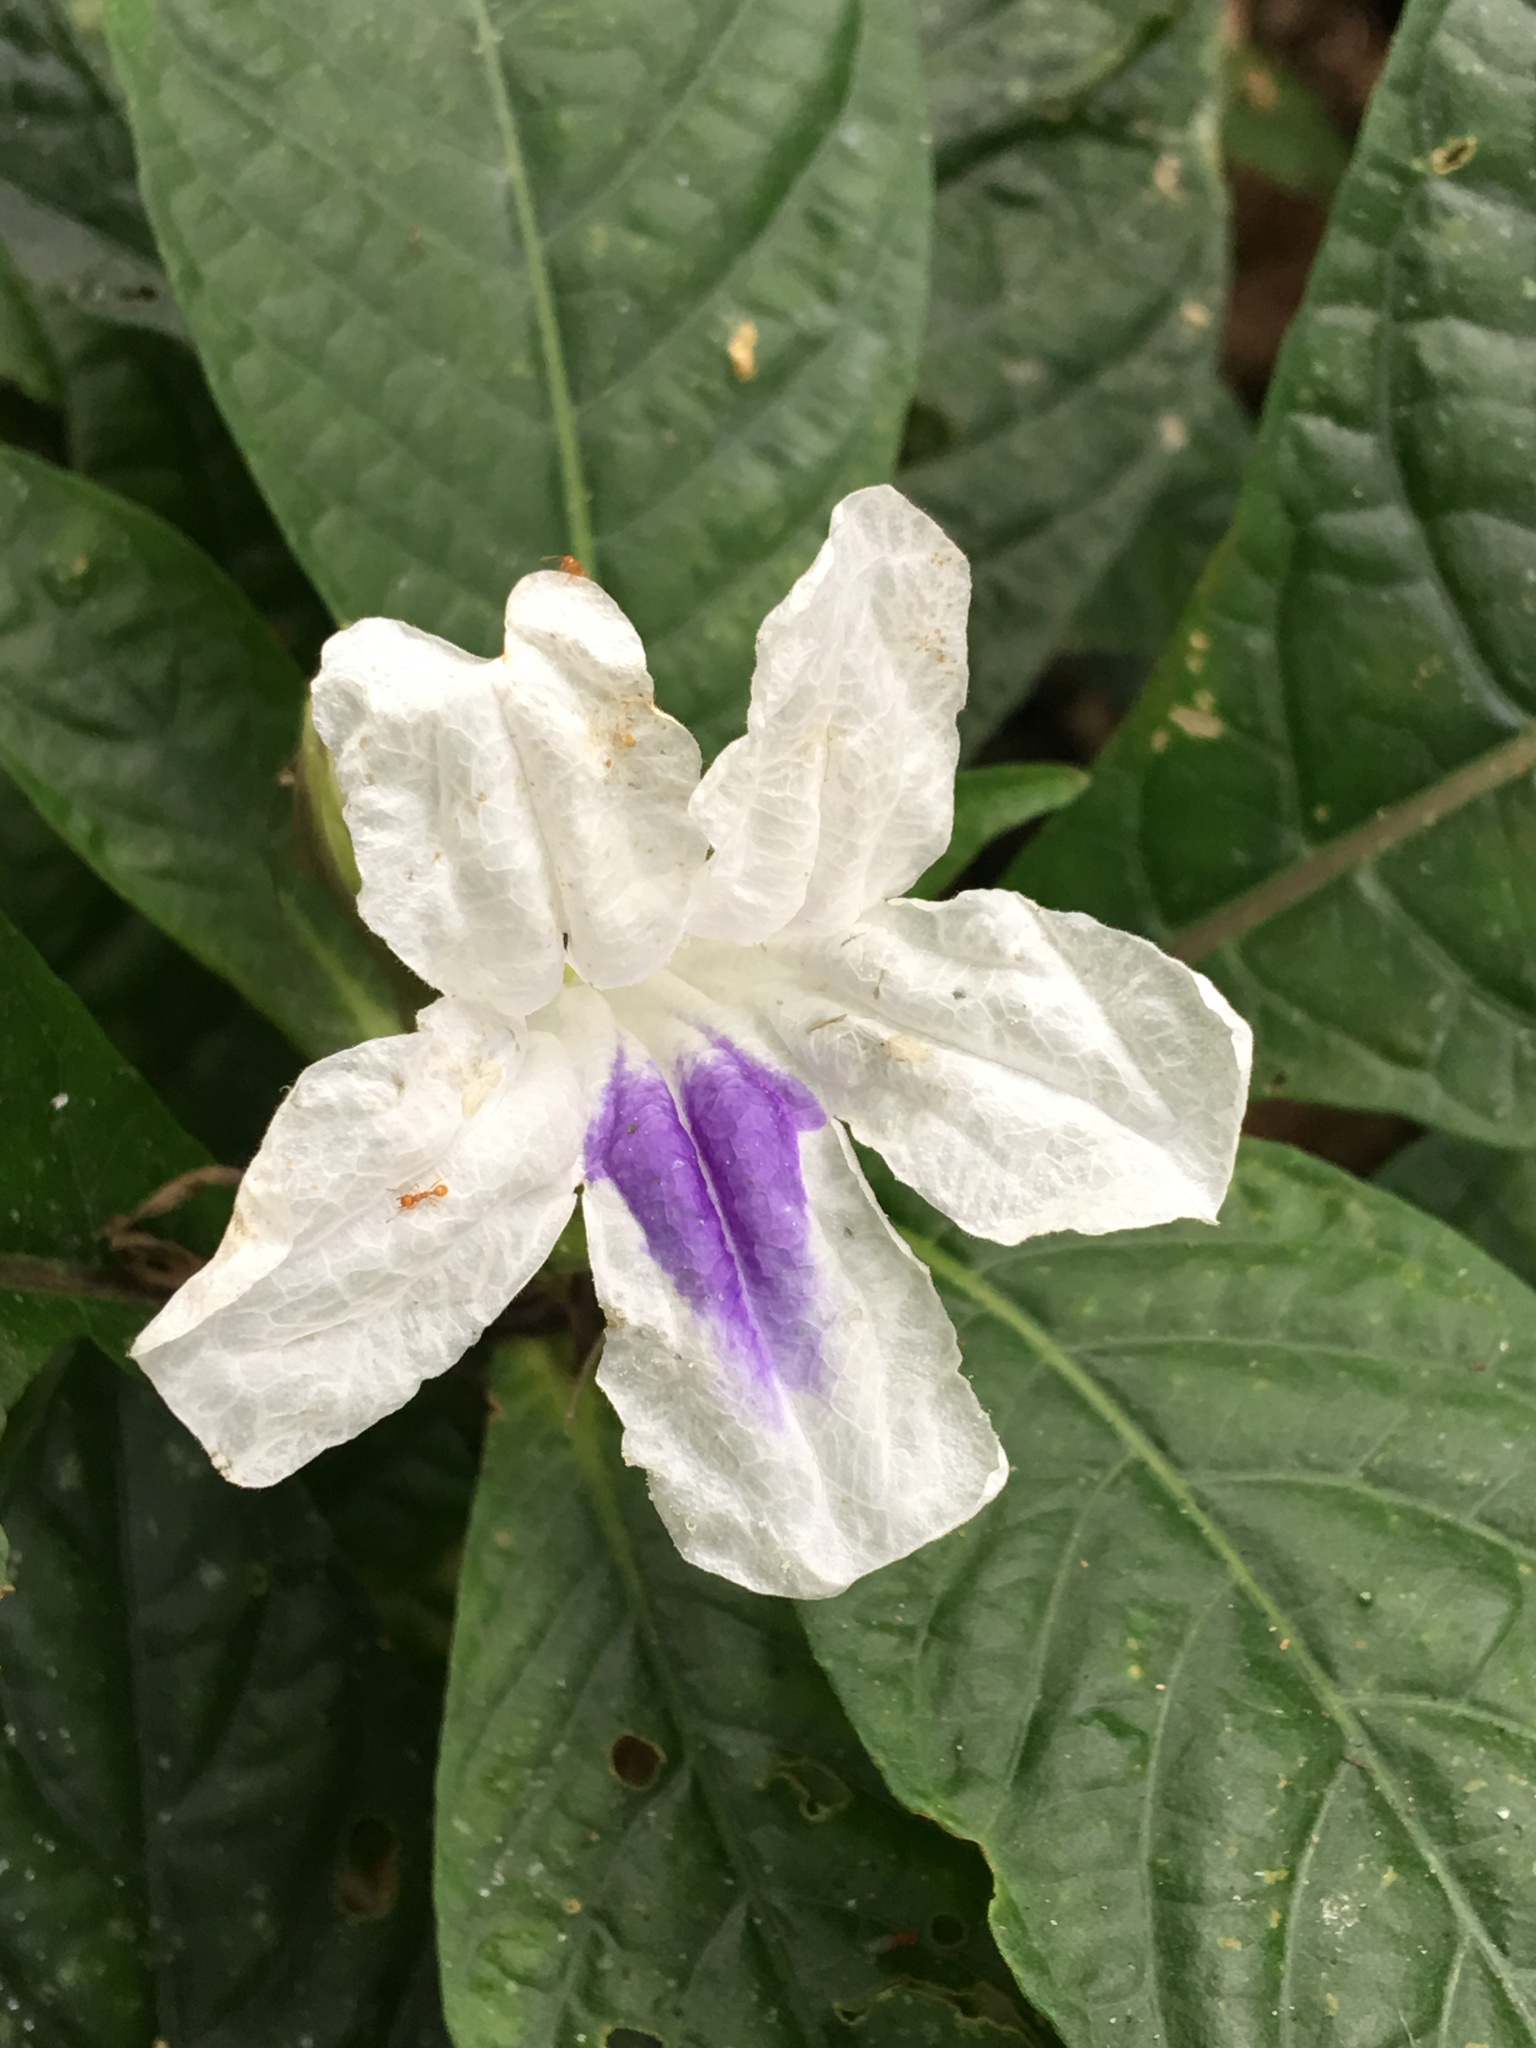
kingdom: Plantae
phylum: Tracheophyta
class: Magnoliopsida
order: Lamiales
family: Acanthaceae
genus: Ruellia
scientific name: Ruellia tubiflora
